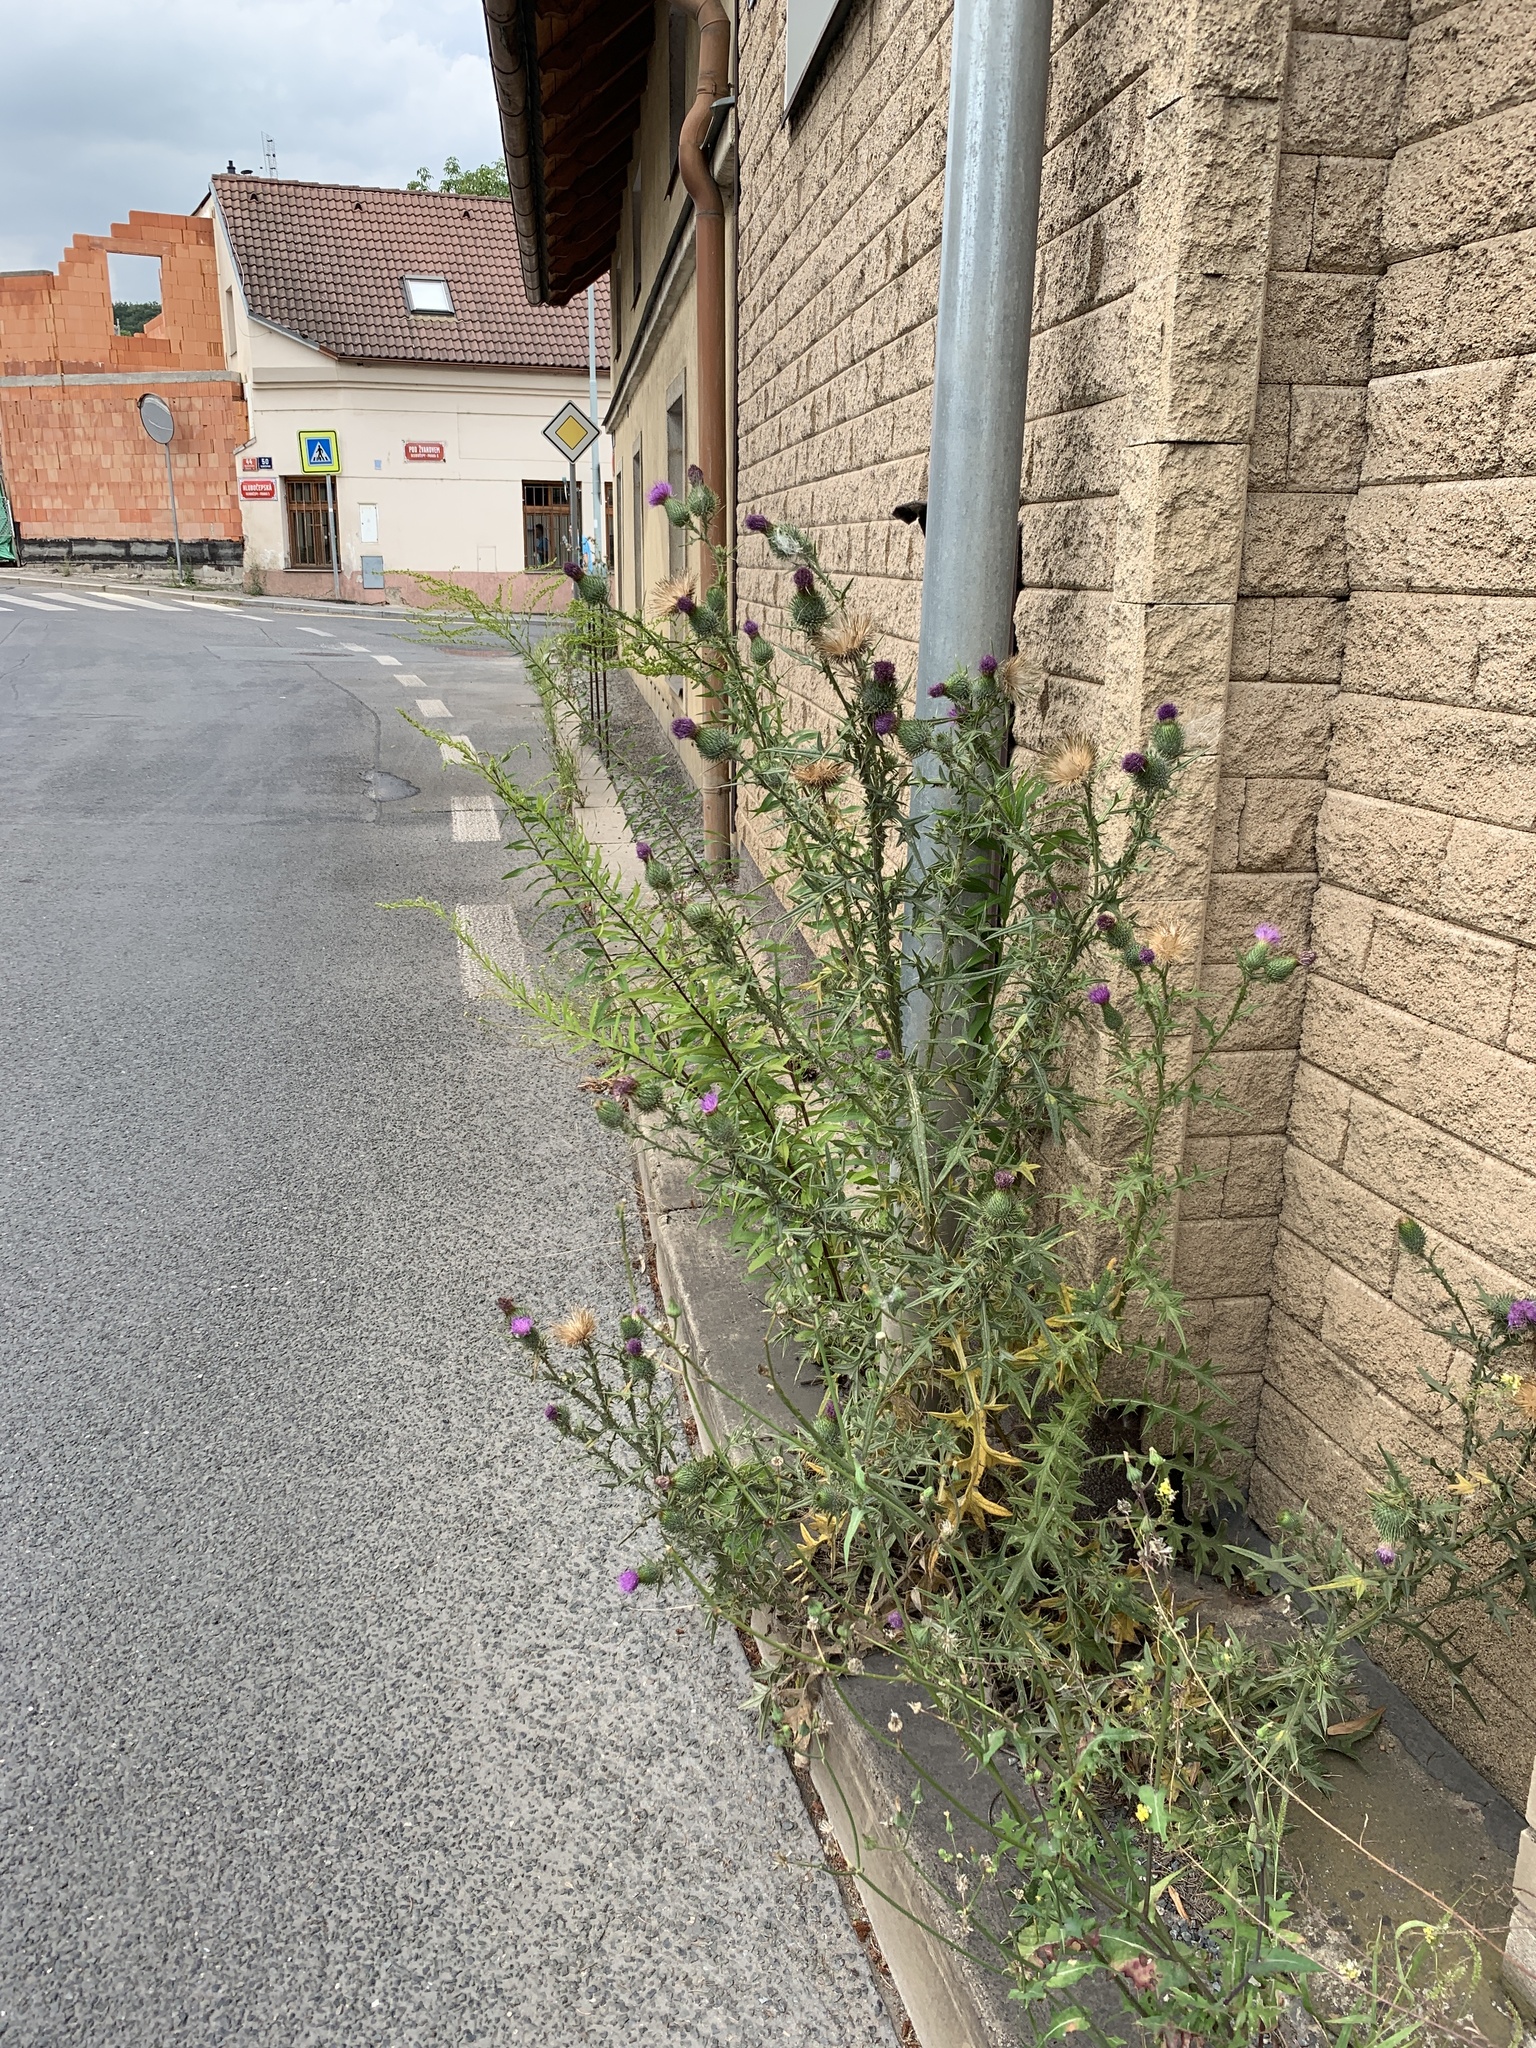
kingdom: Plantae
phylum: Tracheophyta
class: Magnoliopsida
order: Asterales
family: Asteraceae
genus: Cirsium
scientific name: Cirsium vulgare
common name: Bull thistle
